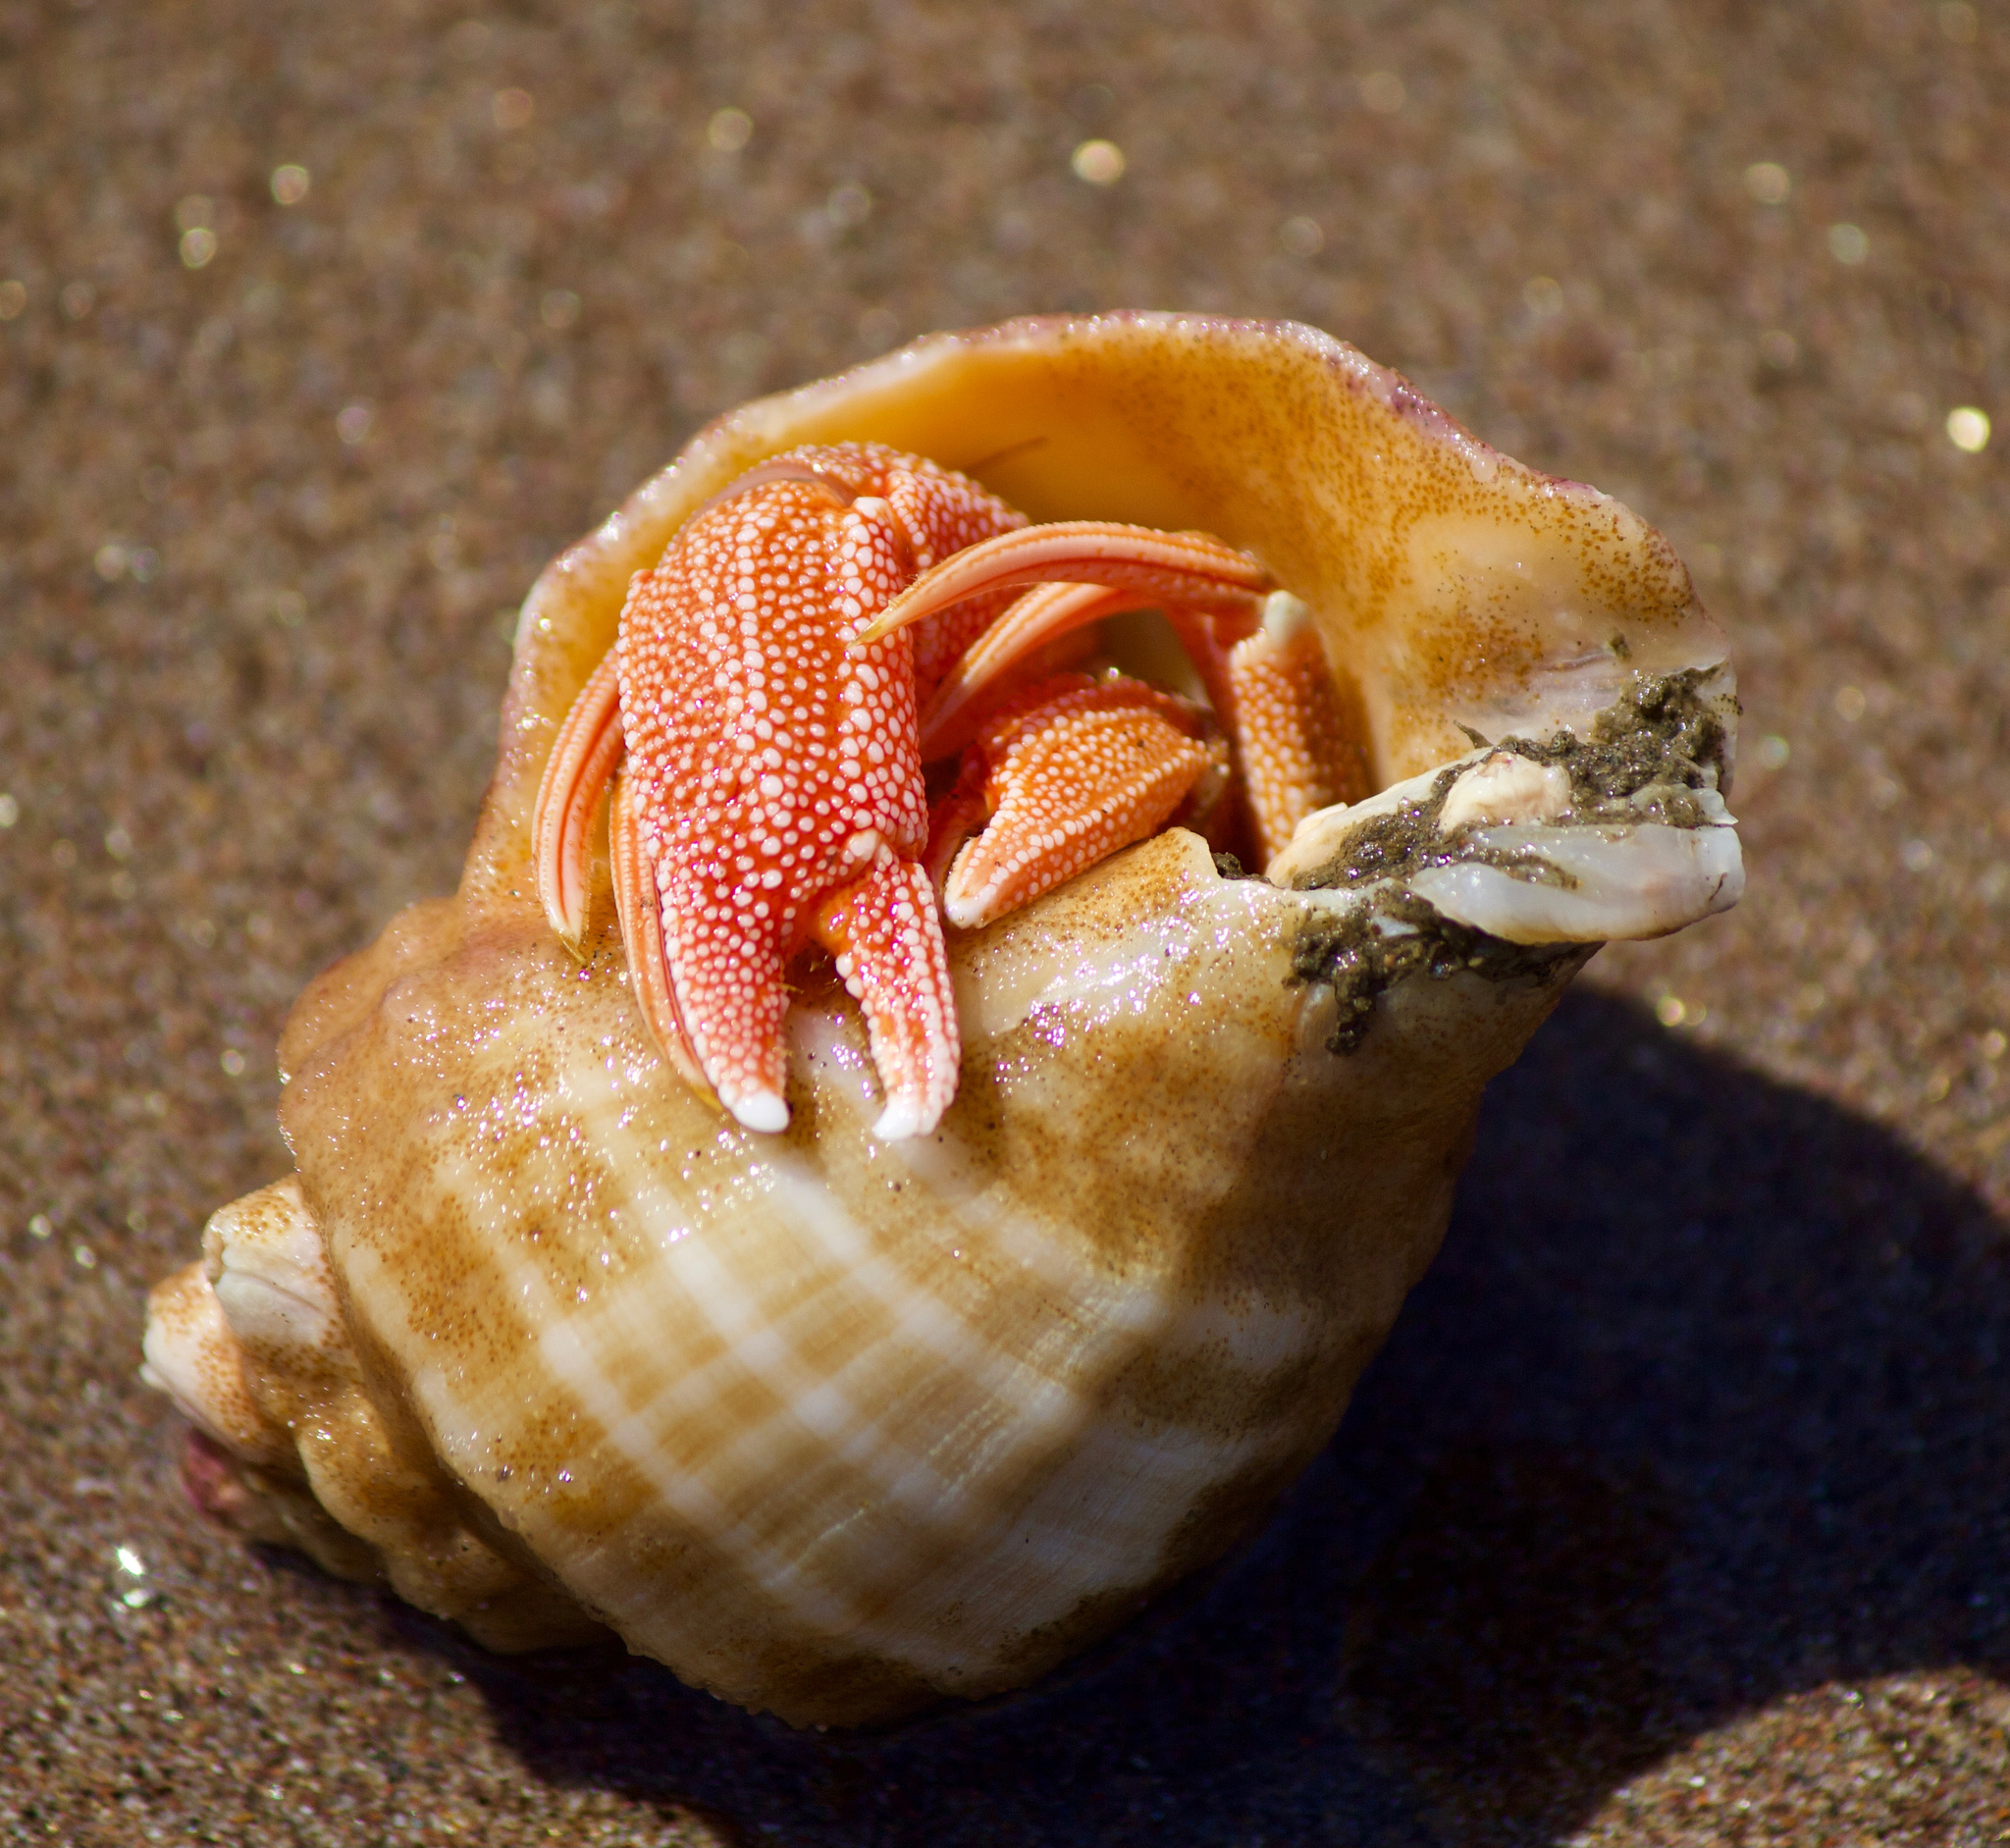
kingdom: Animalia
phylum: Arthropoda
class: Malacostraca
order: Decapoda
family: Paguridae
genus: Pagurus
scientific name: Pagurus perlatus
